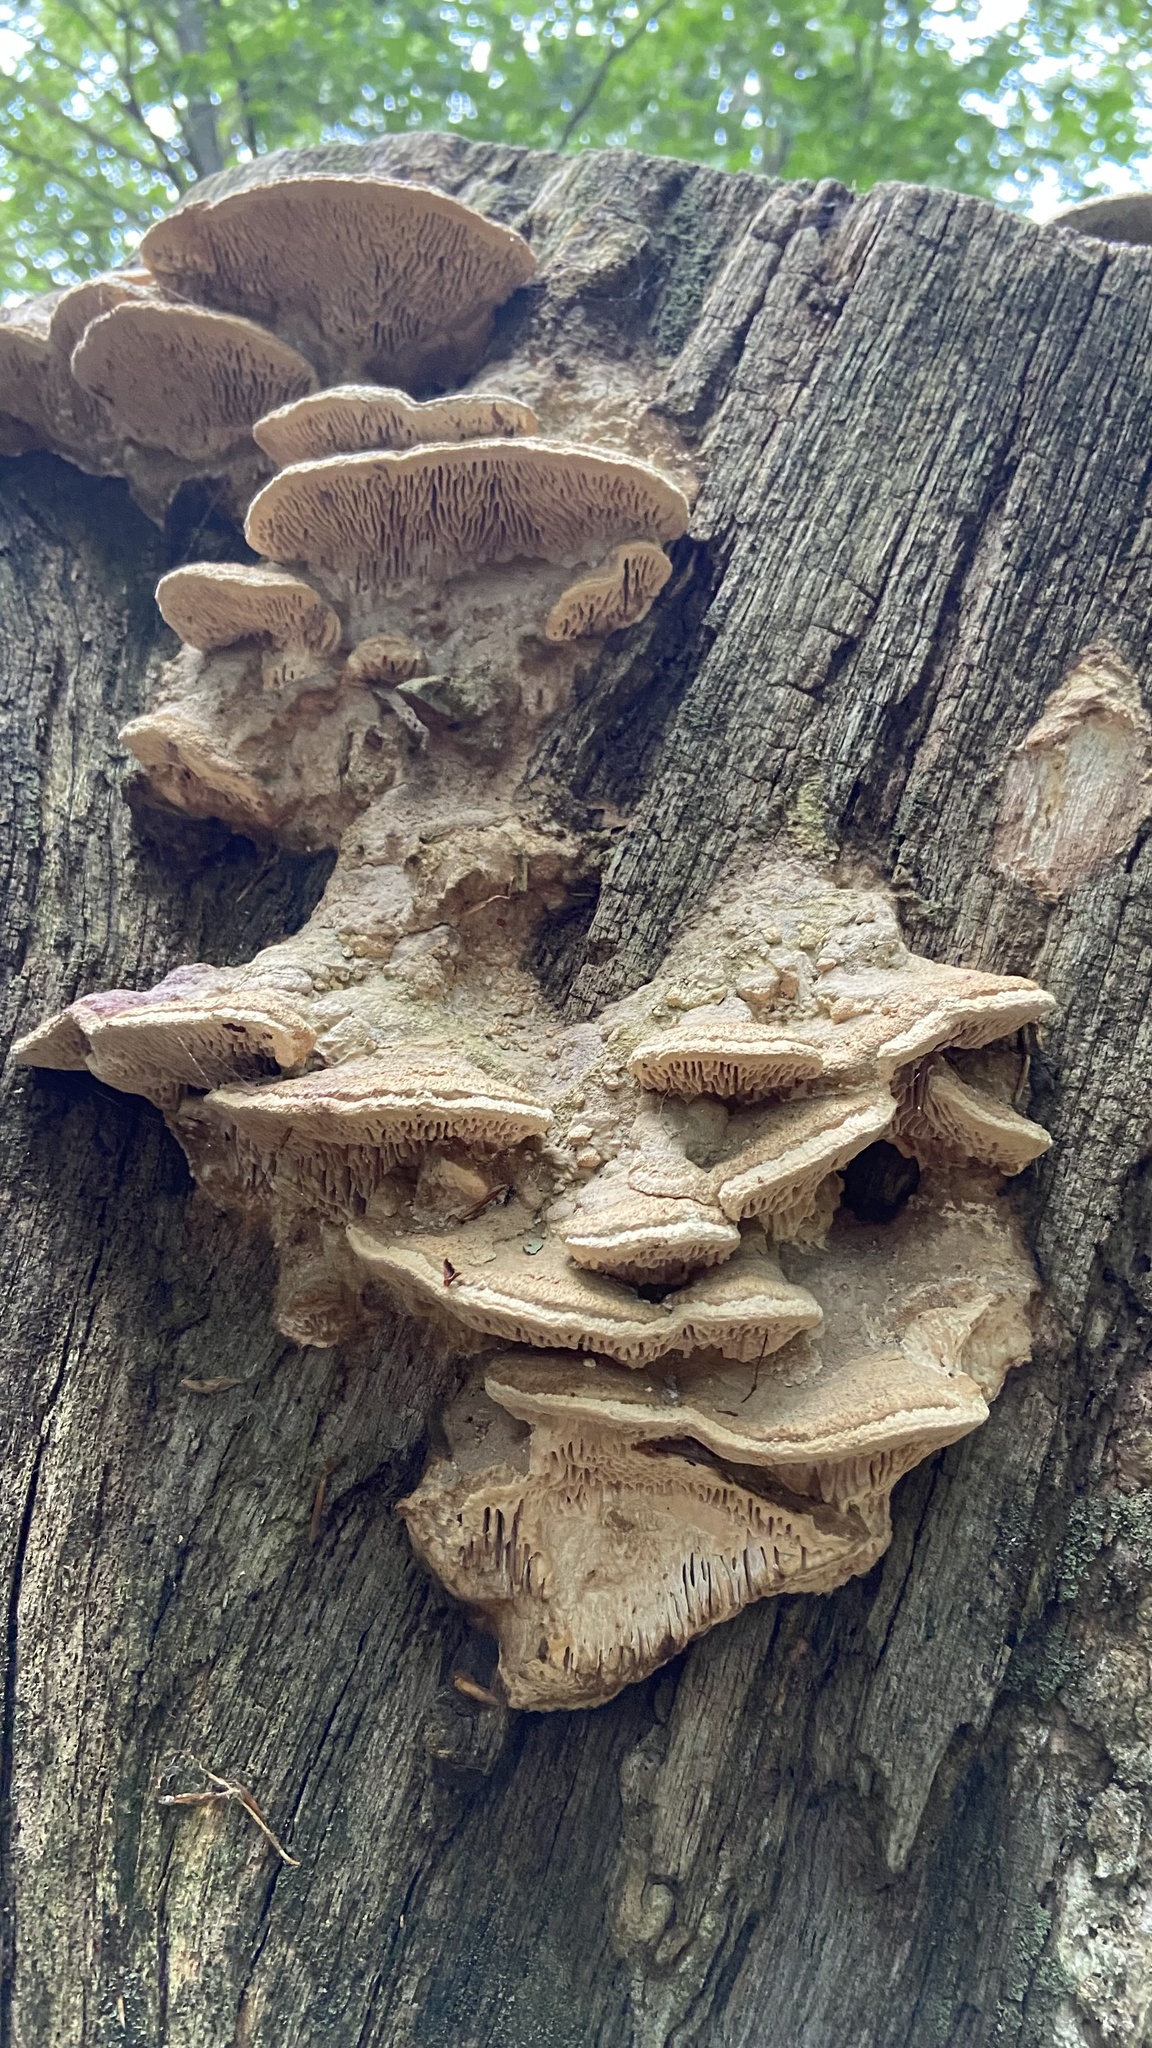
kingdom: Fungi
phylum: Basidiomycota
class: Agaricomycetes
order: Polyporales
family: Fomitopsidaceae
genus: Fomitopsis
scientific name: Fomitopsis
